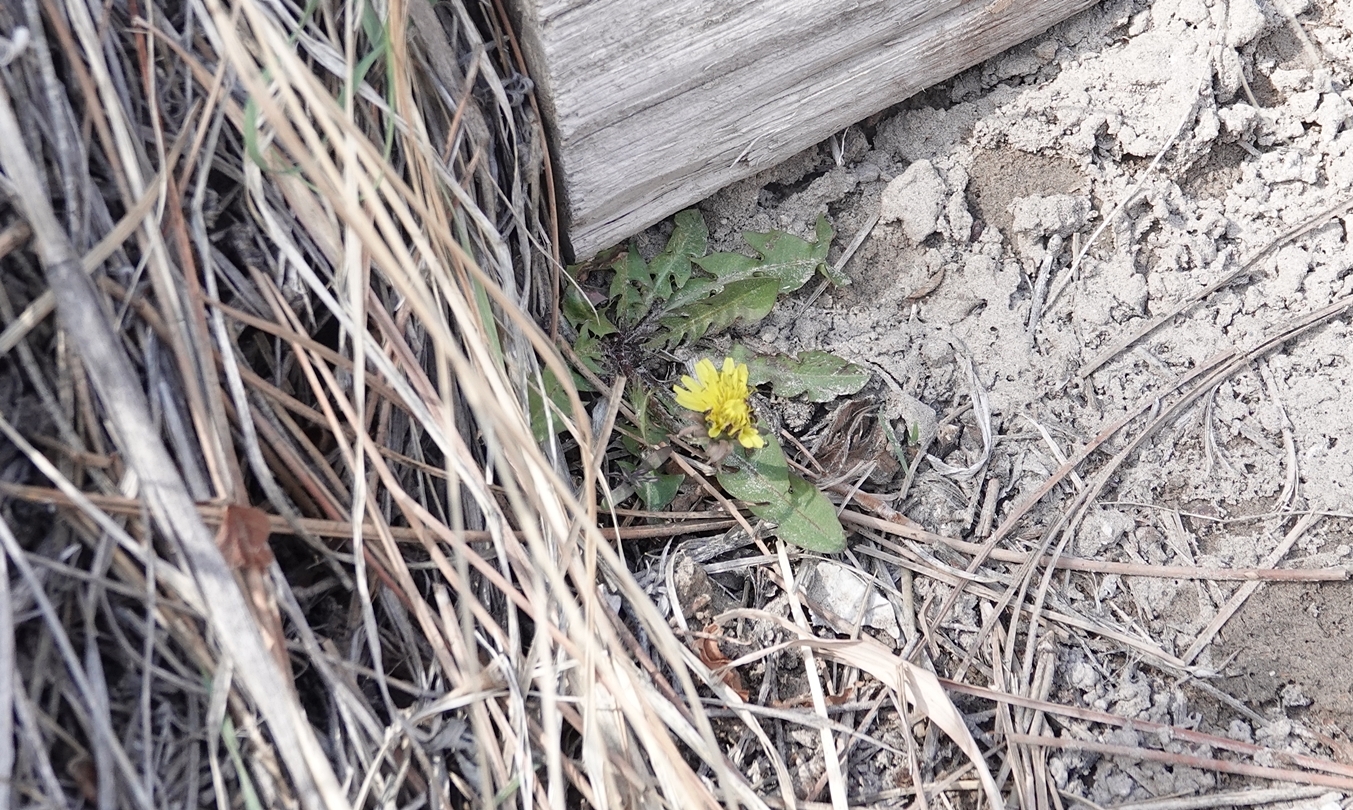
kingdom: Plantae
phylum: Tracheophyta
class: Magnoliopsida
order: Asterales
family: Asteraceae
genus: Taraxacum
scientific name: Taraxacum
